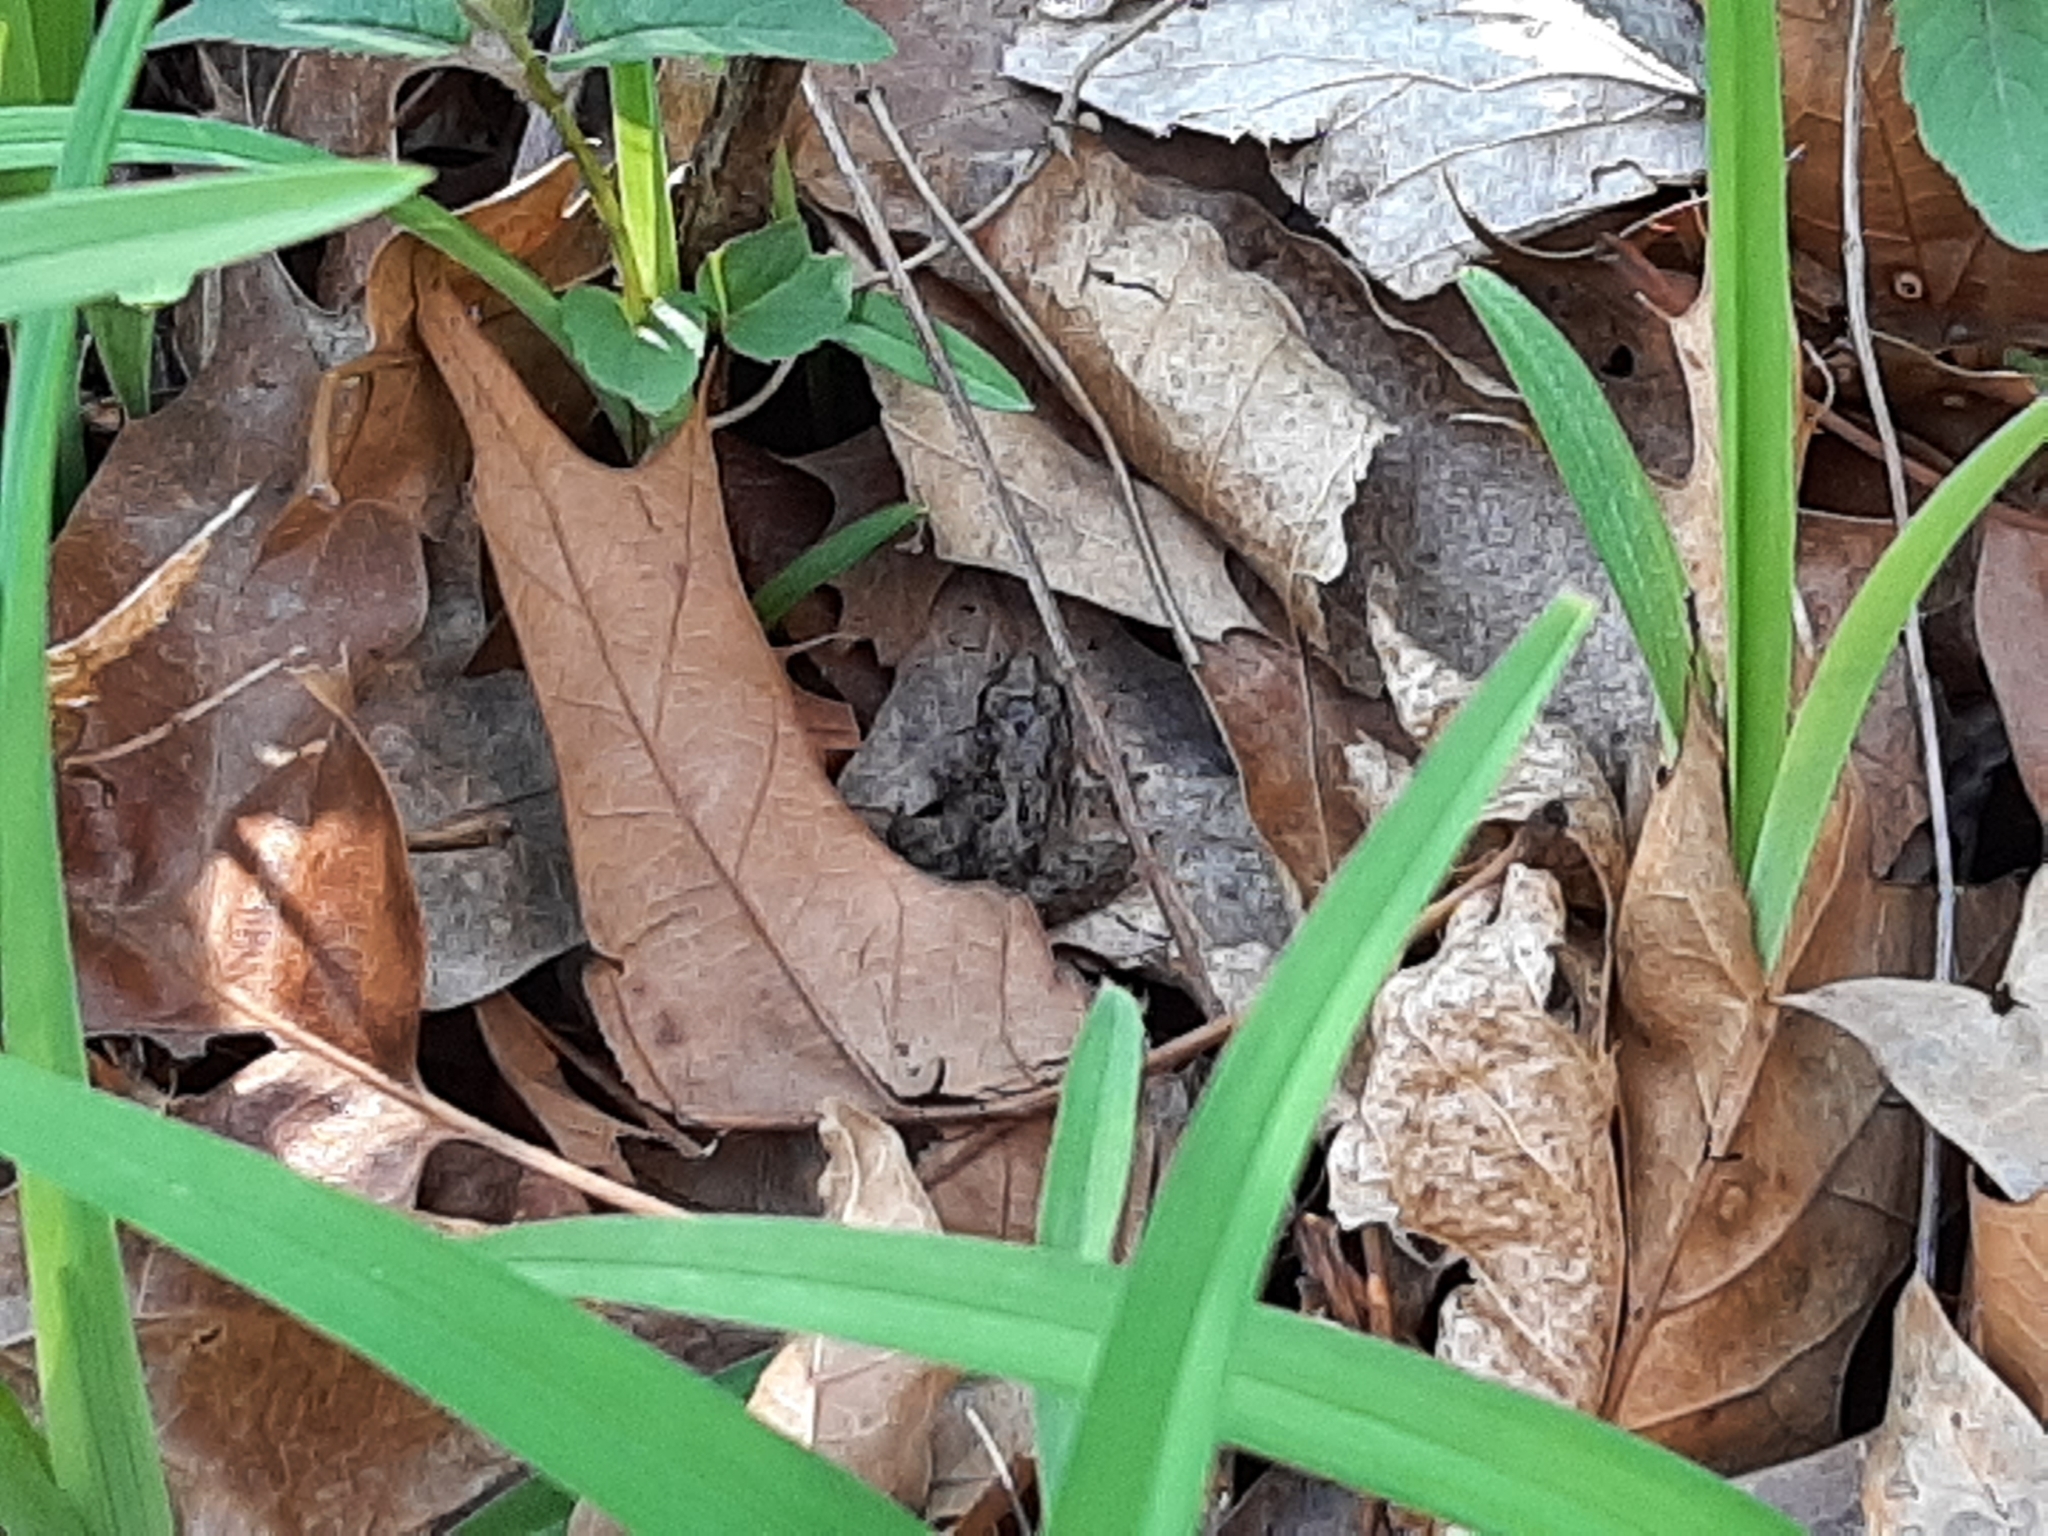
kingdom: Animalia
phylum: Chordata
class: Amphibia
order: Anura
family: Hylidae
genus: Acris
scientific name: Acris blanchardi
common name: Blanchard's cricket frog
